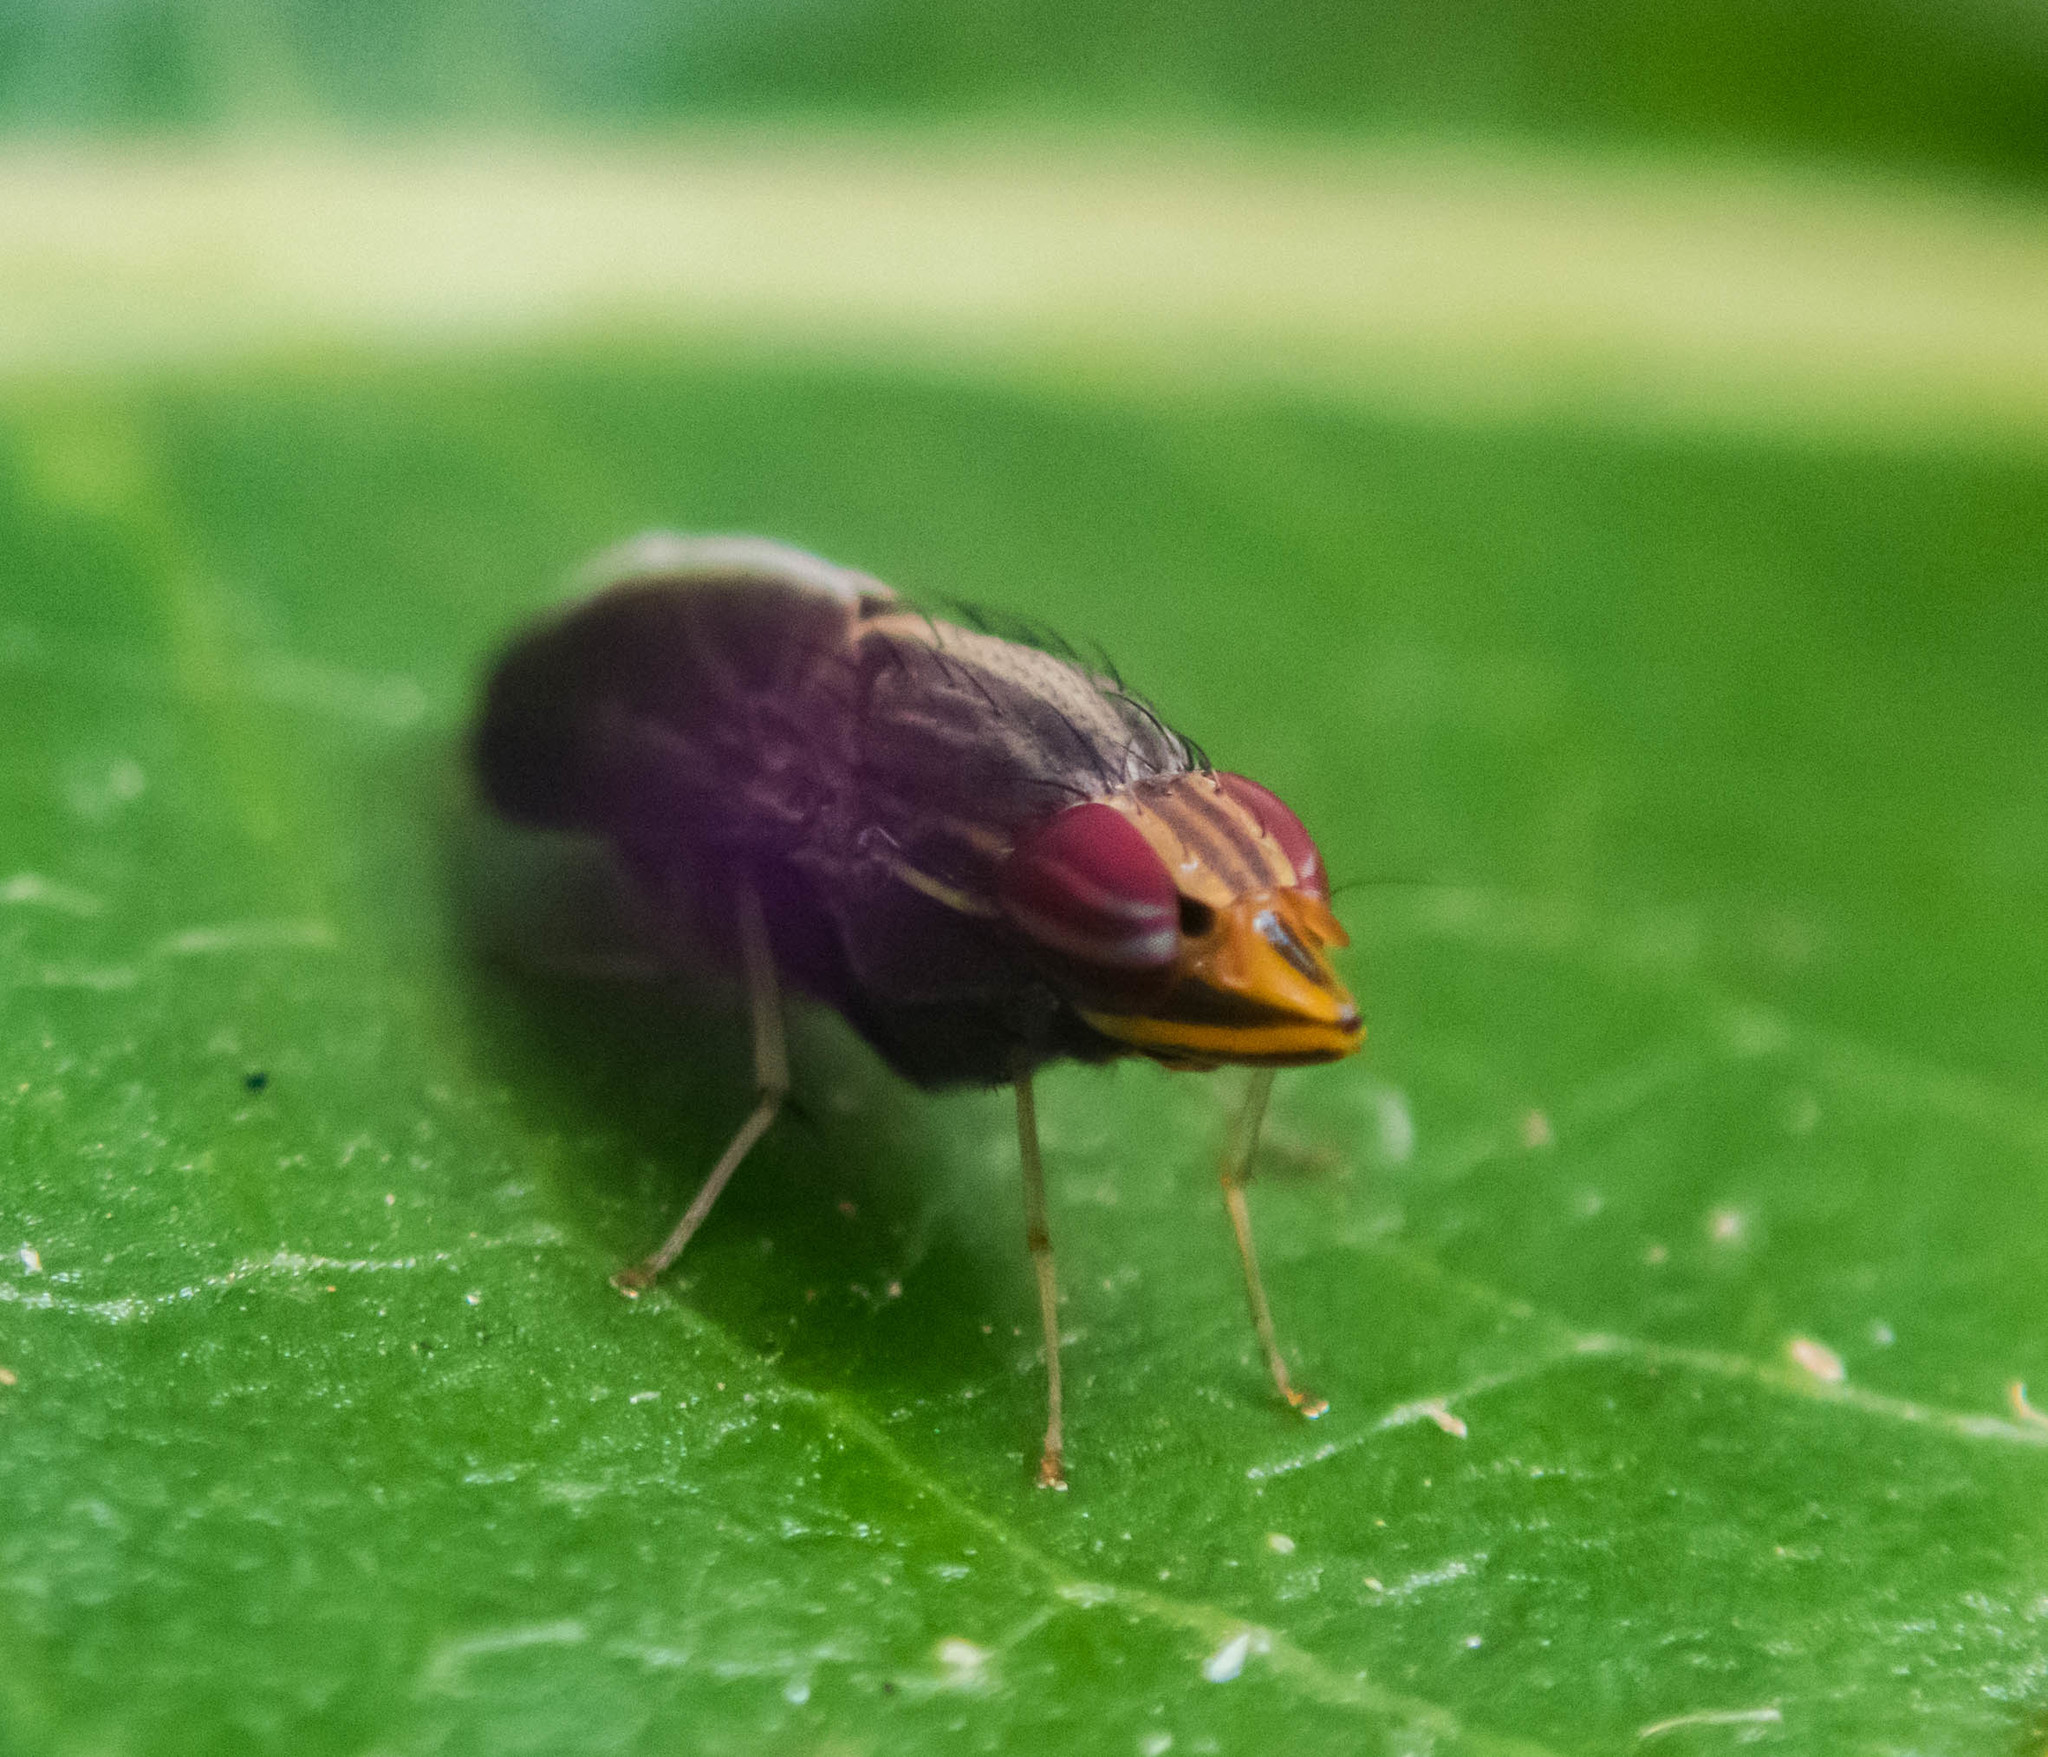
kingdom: Animalia
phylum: Arthropoda
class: Insecta
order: Diptera
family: Lauxaniidae
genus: Cephaloconus
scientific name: Cephaloconus tenebrosus
